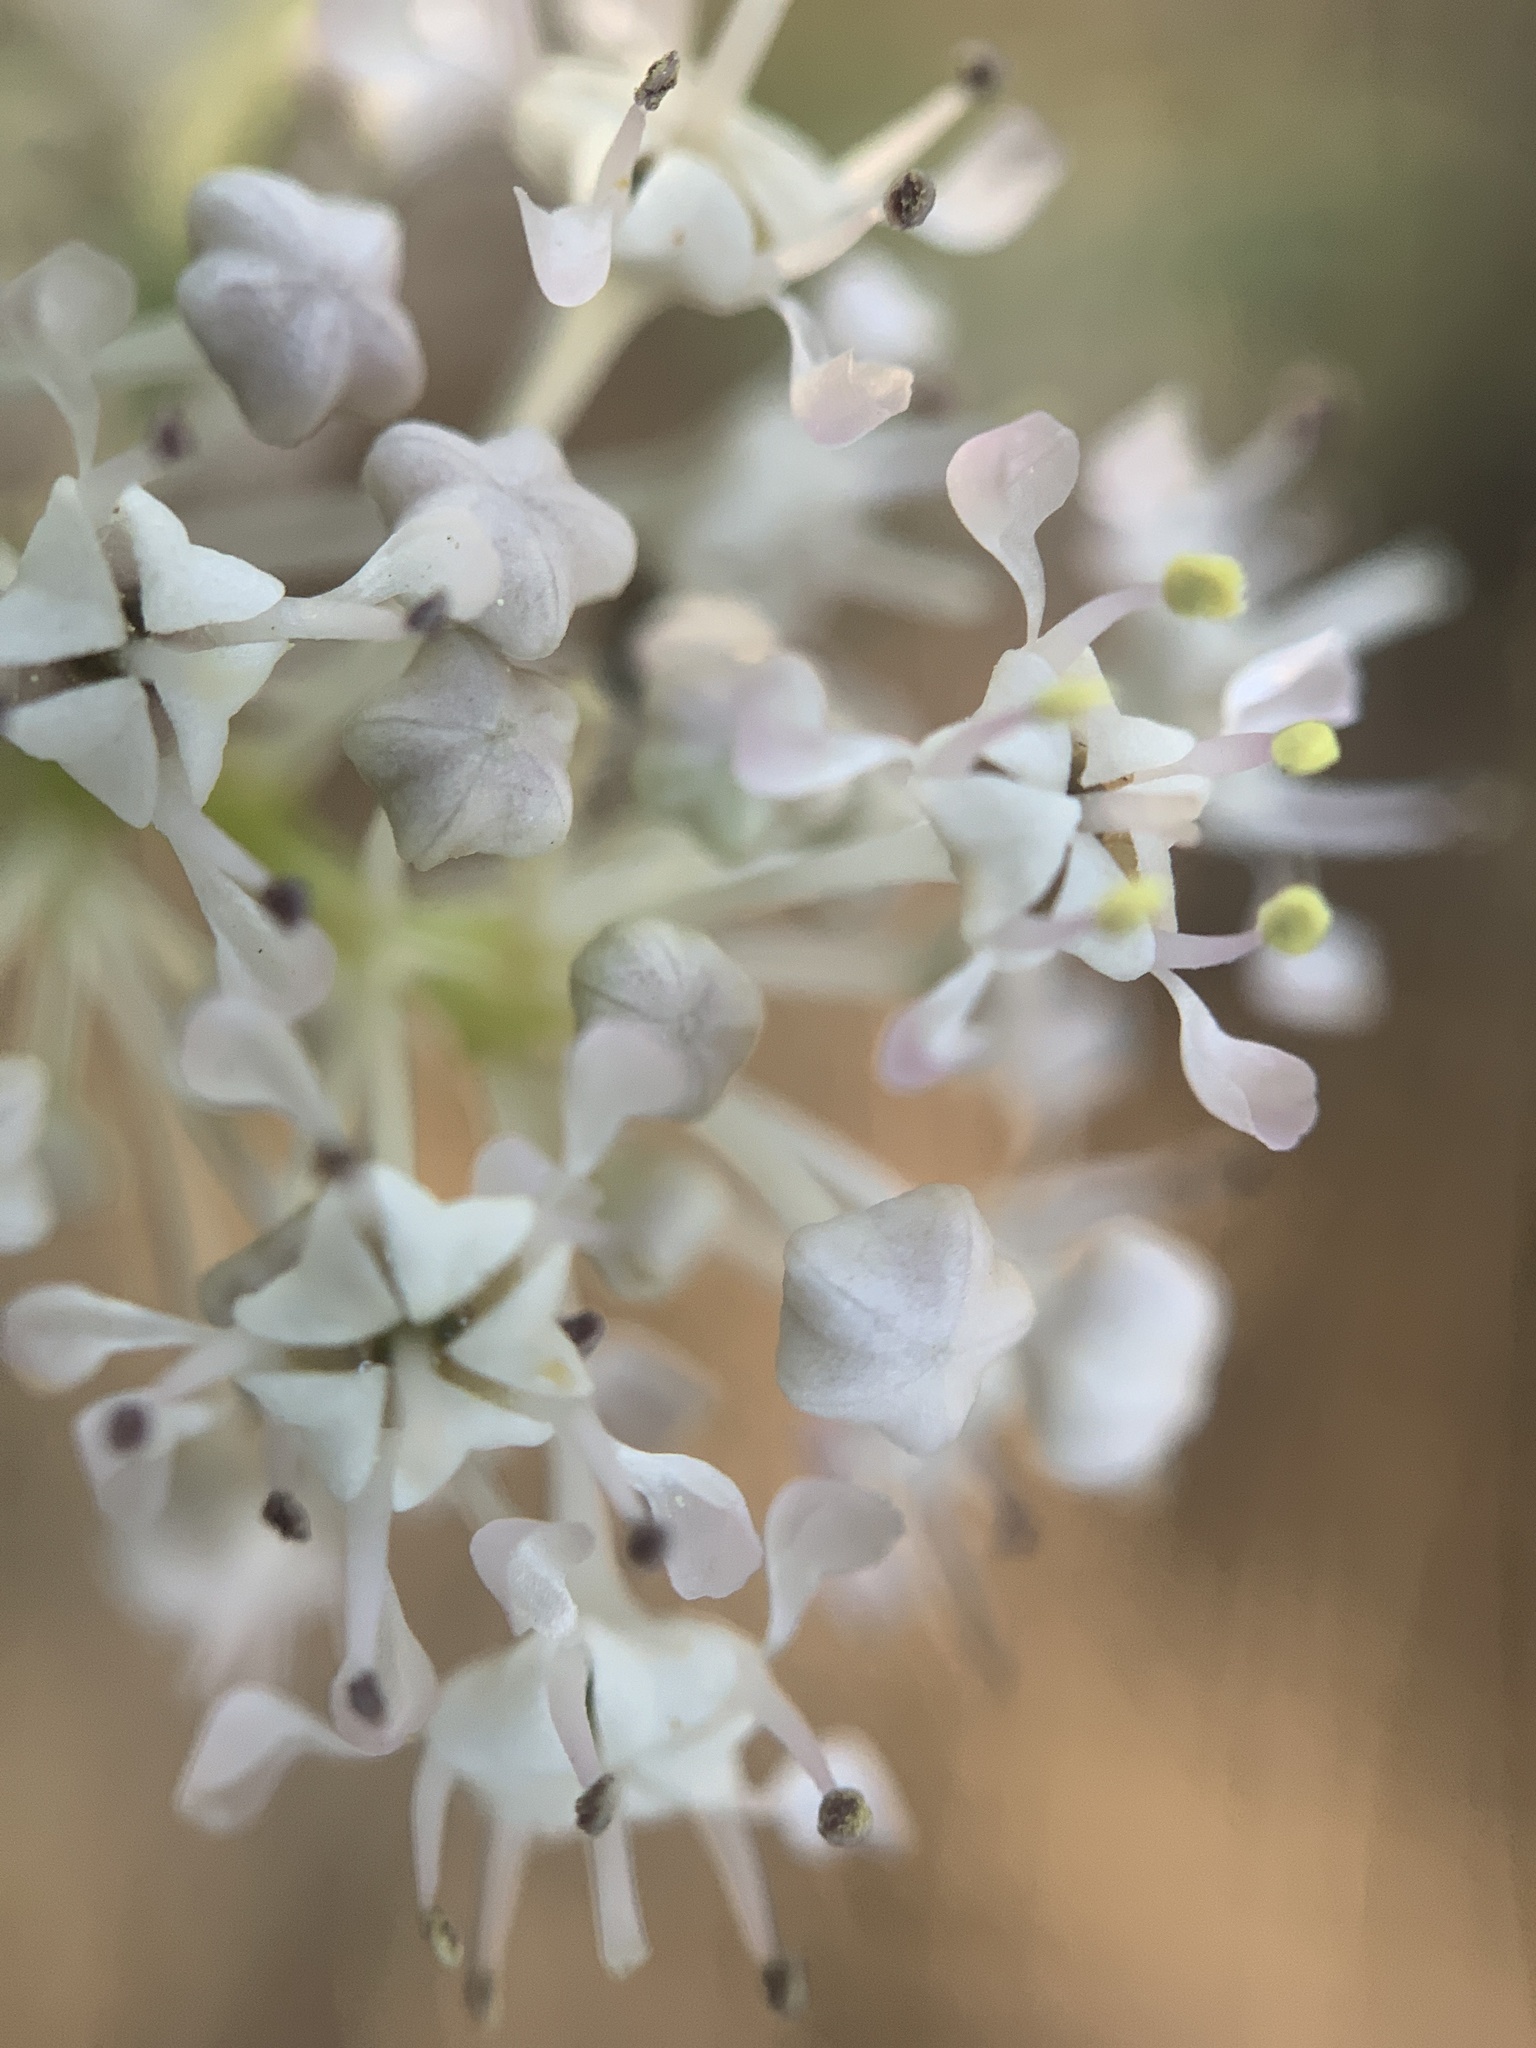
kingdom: Plantae
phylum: Tracheophyta
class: Magnoliopsida
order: Rosales
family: Rhamnaceae
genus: Ceanothus
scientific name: Ceanothus fendleri
